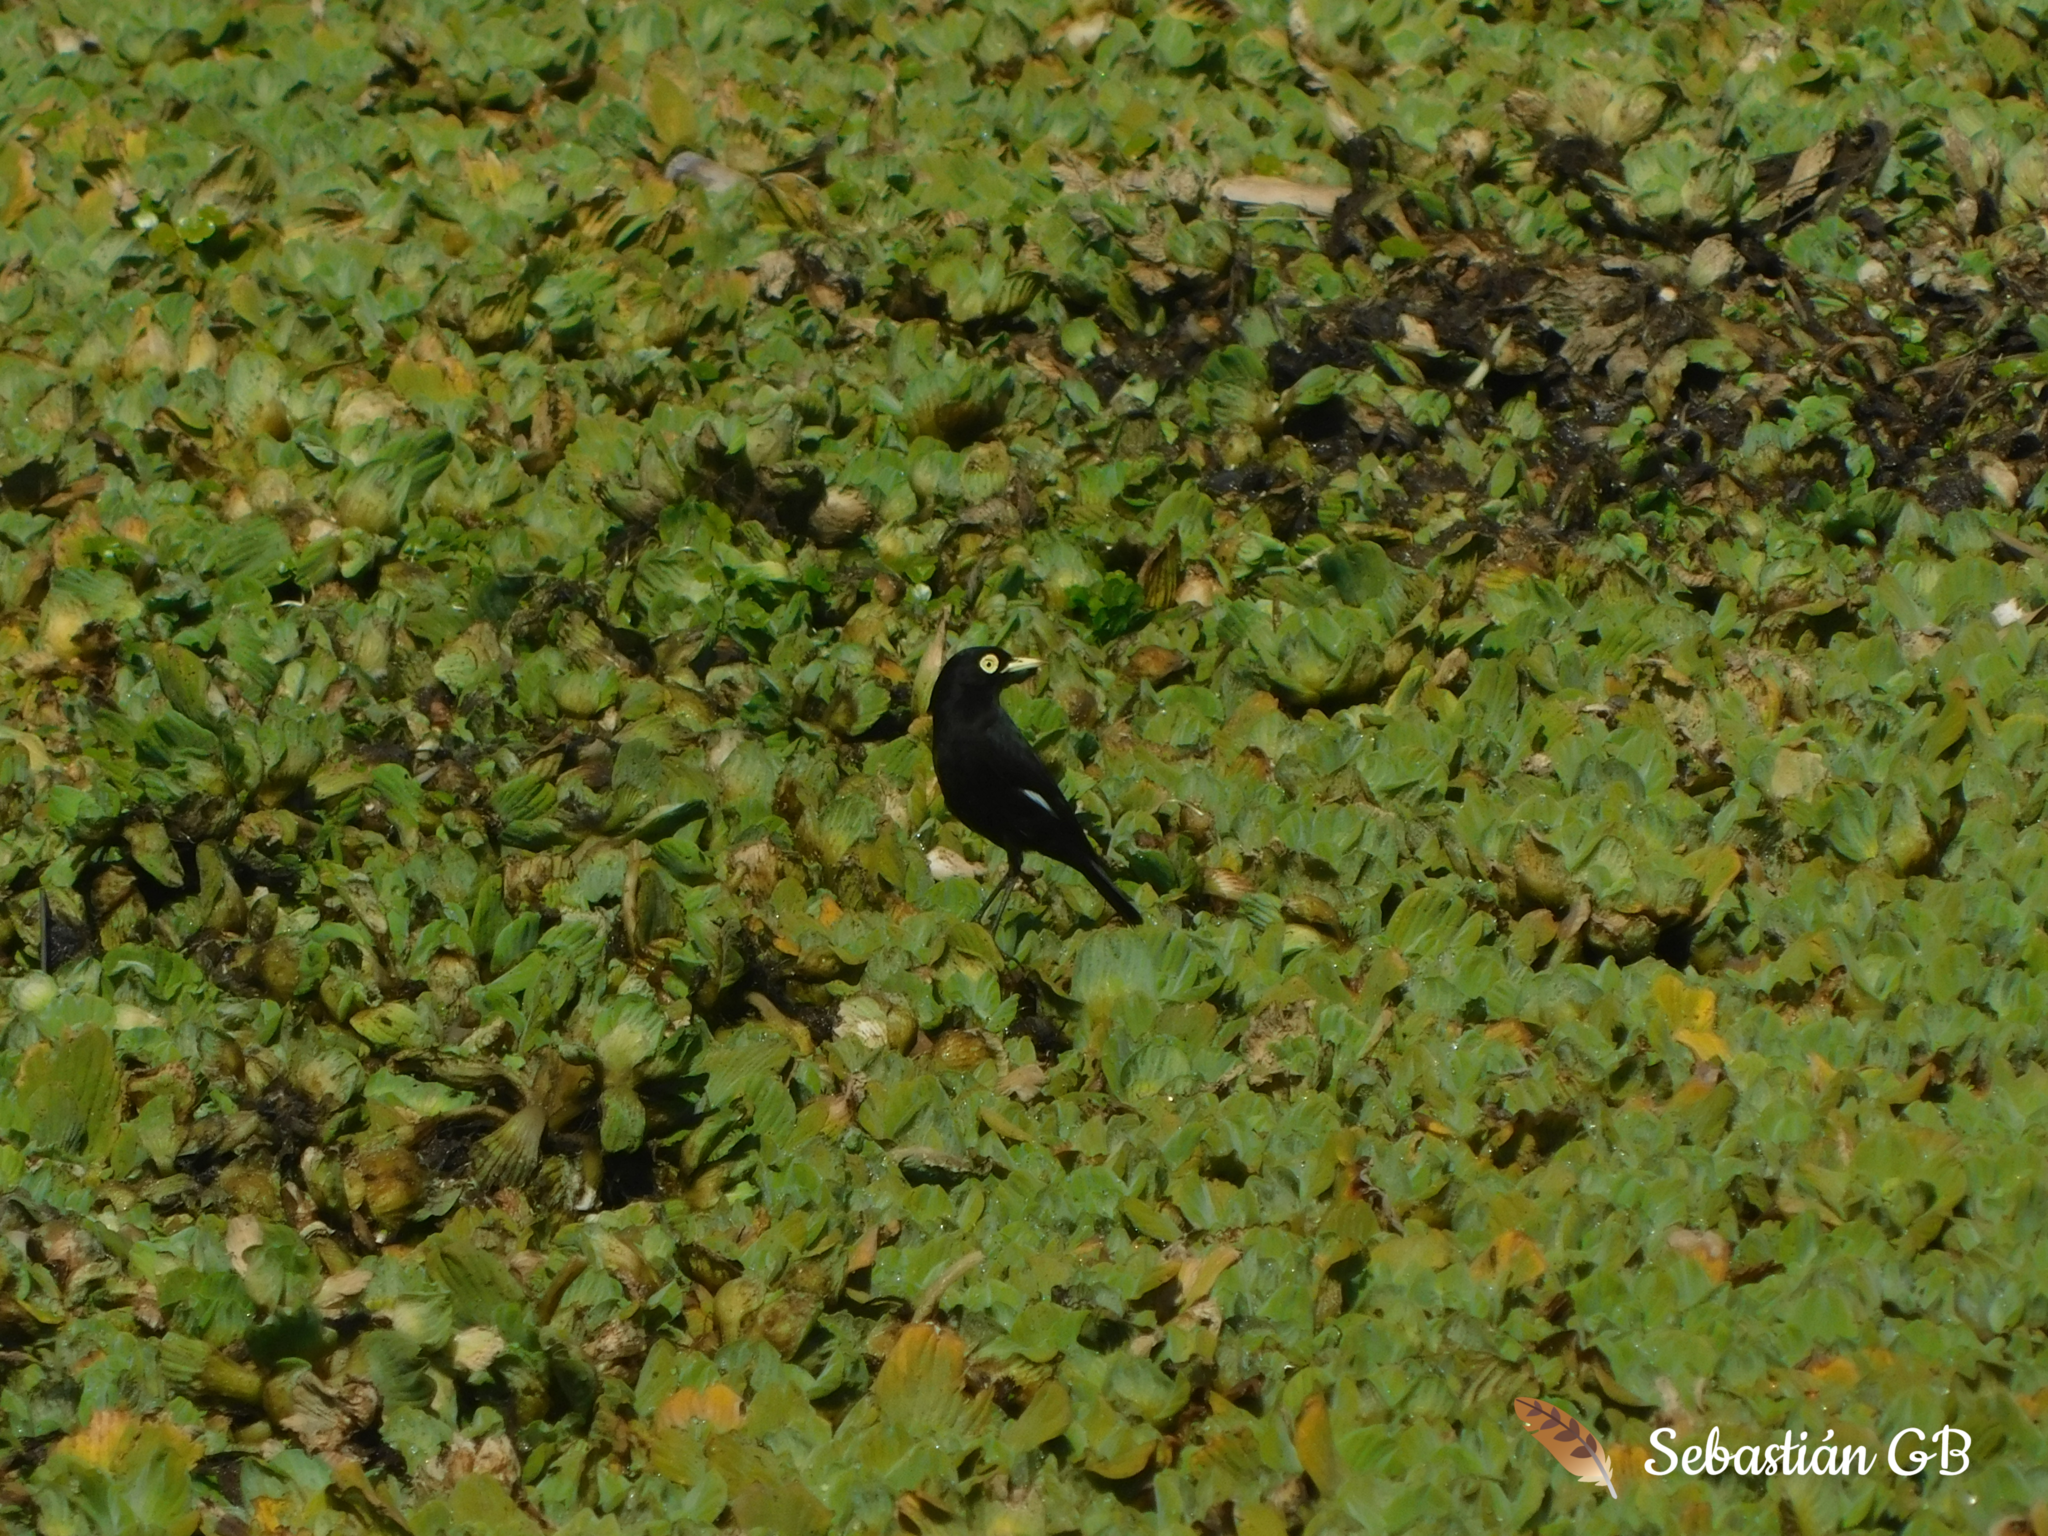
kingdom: Animalia
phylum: Chordata
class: Aves
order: Passeriformes
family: Tyrannidae
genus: Hymenops
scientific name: Hymenops perspicillatus
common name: Spectacled tyrant
